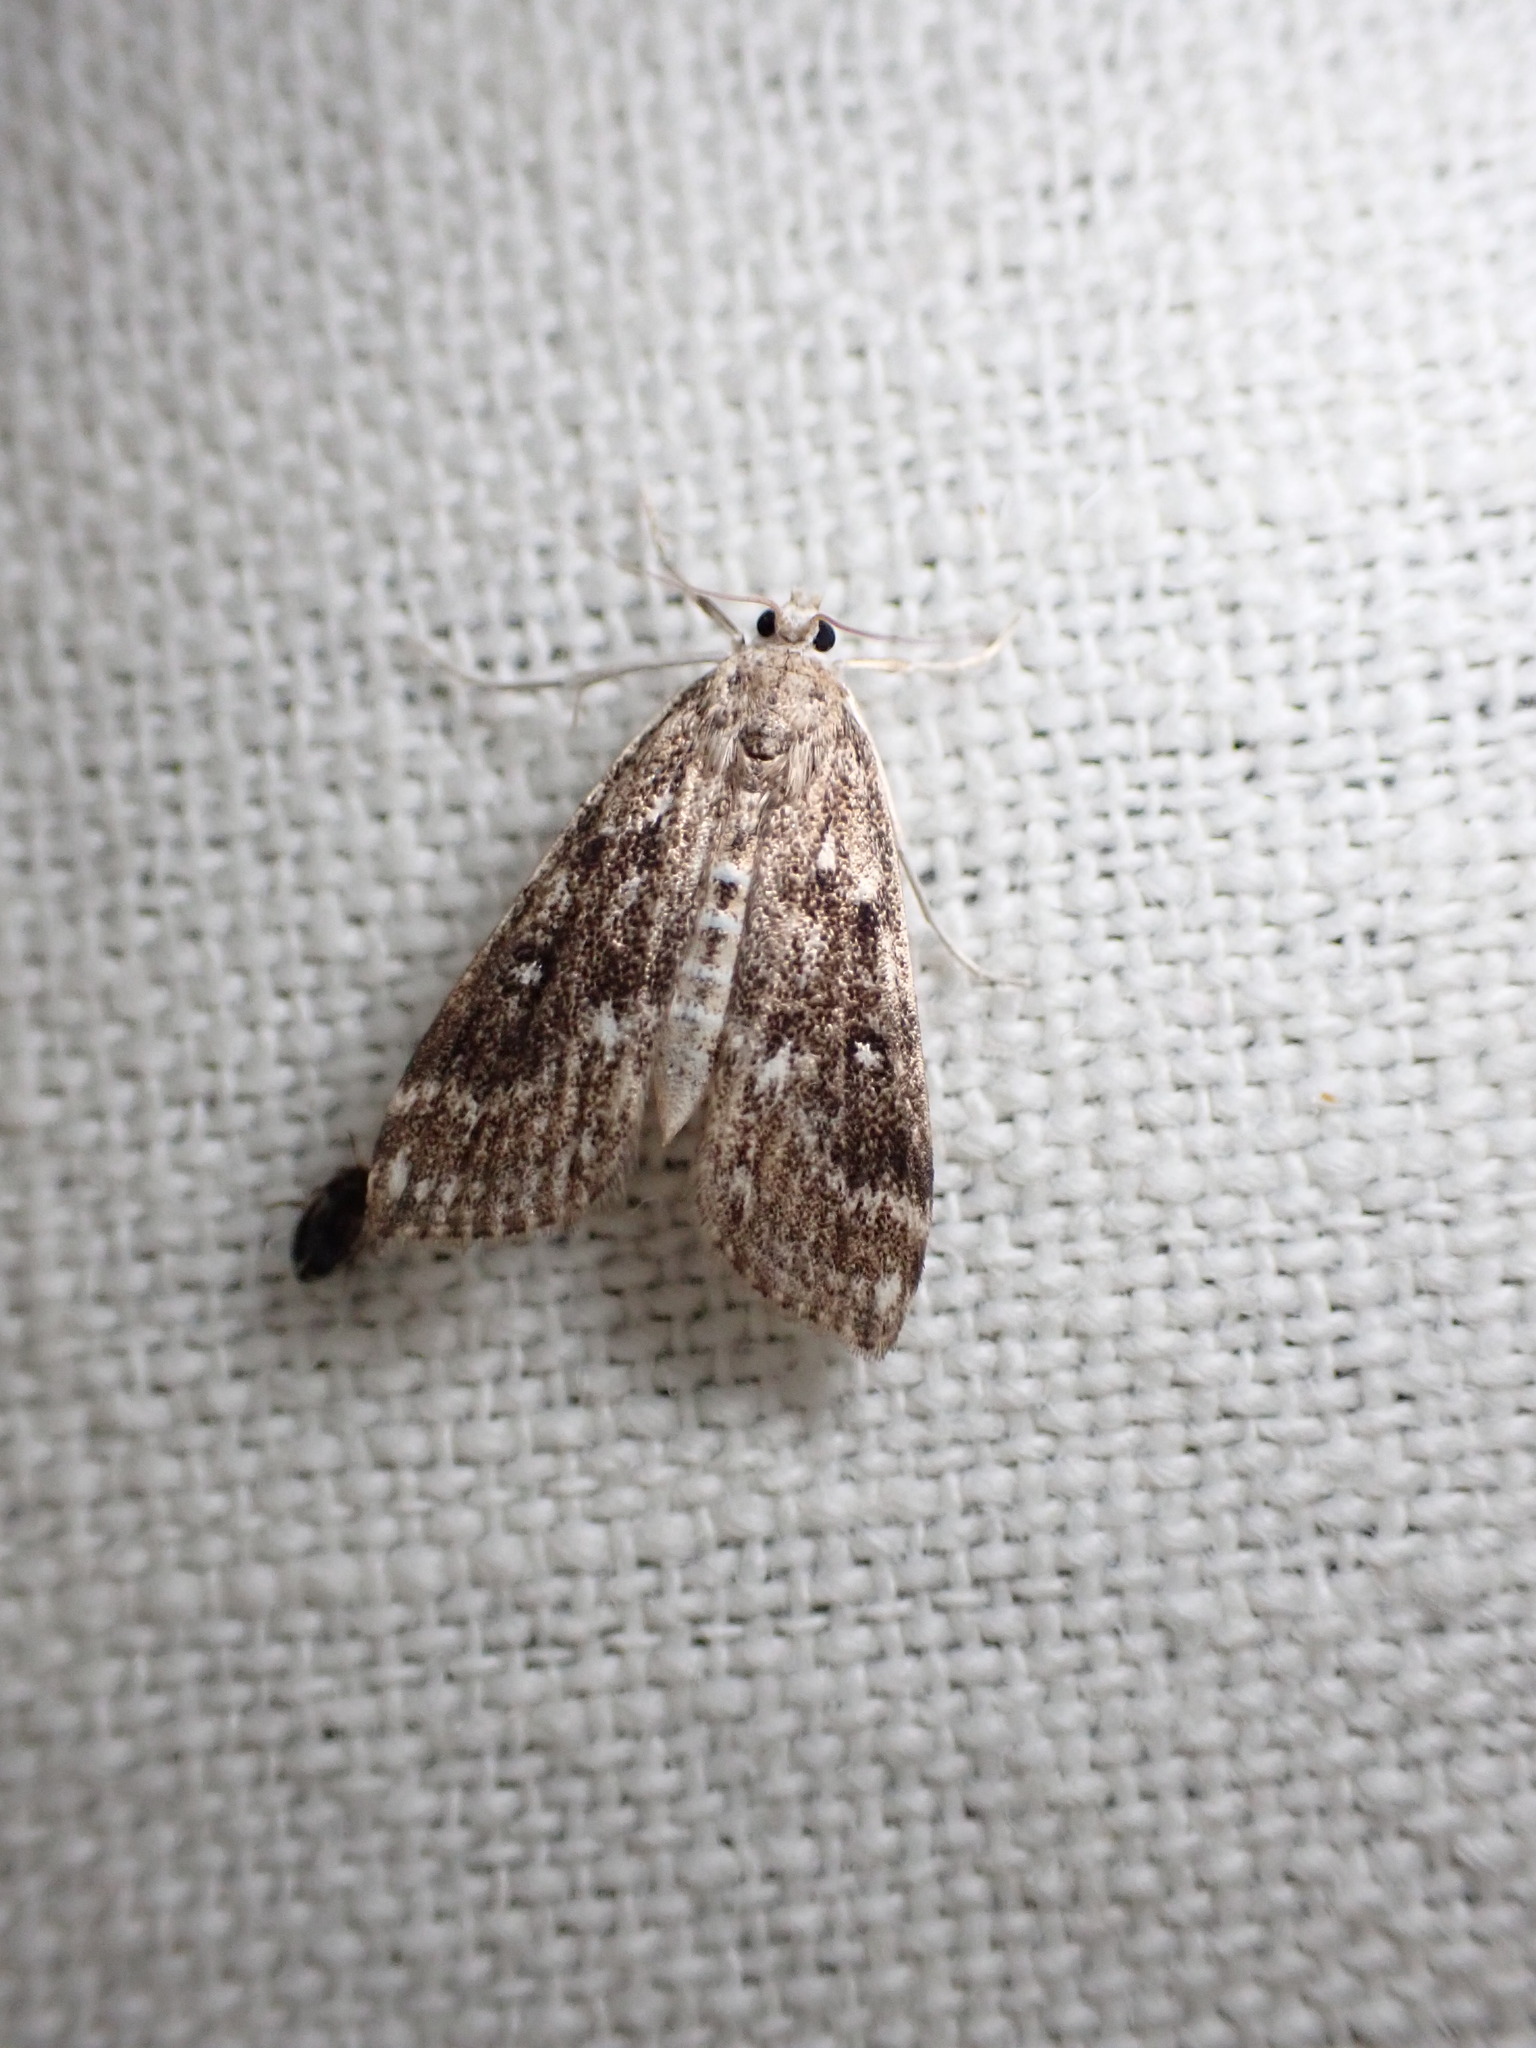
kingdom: Animalia
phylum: Arthropoda
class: Insecta
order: Lepidoptera
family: Crambidae
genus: Parapoynx
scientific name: Parapoynx stratiotata
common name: Ringed china-mark
